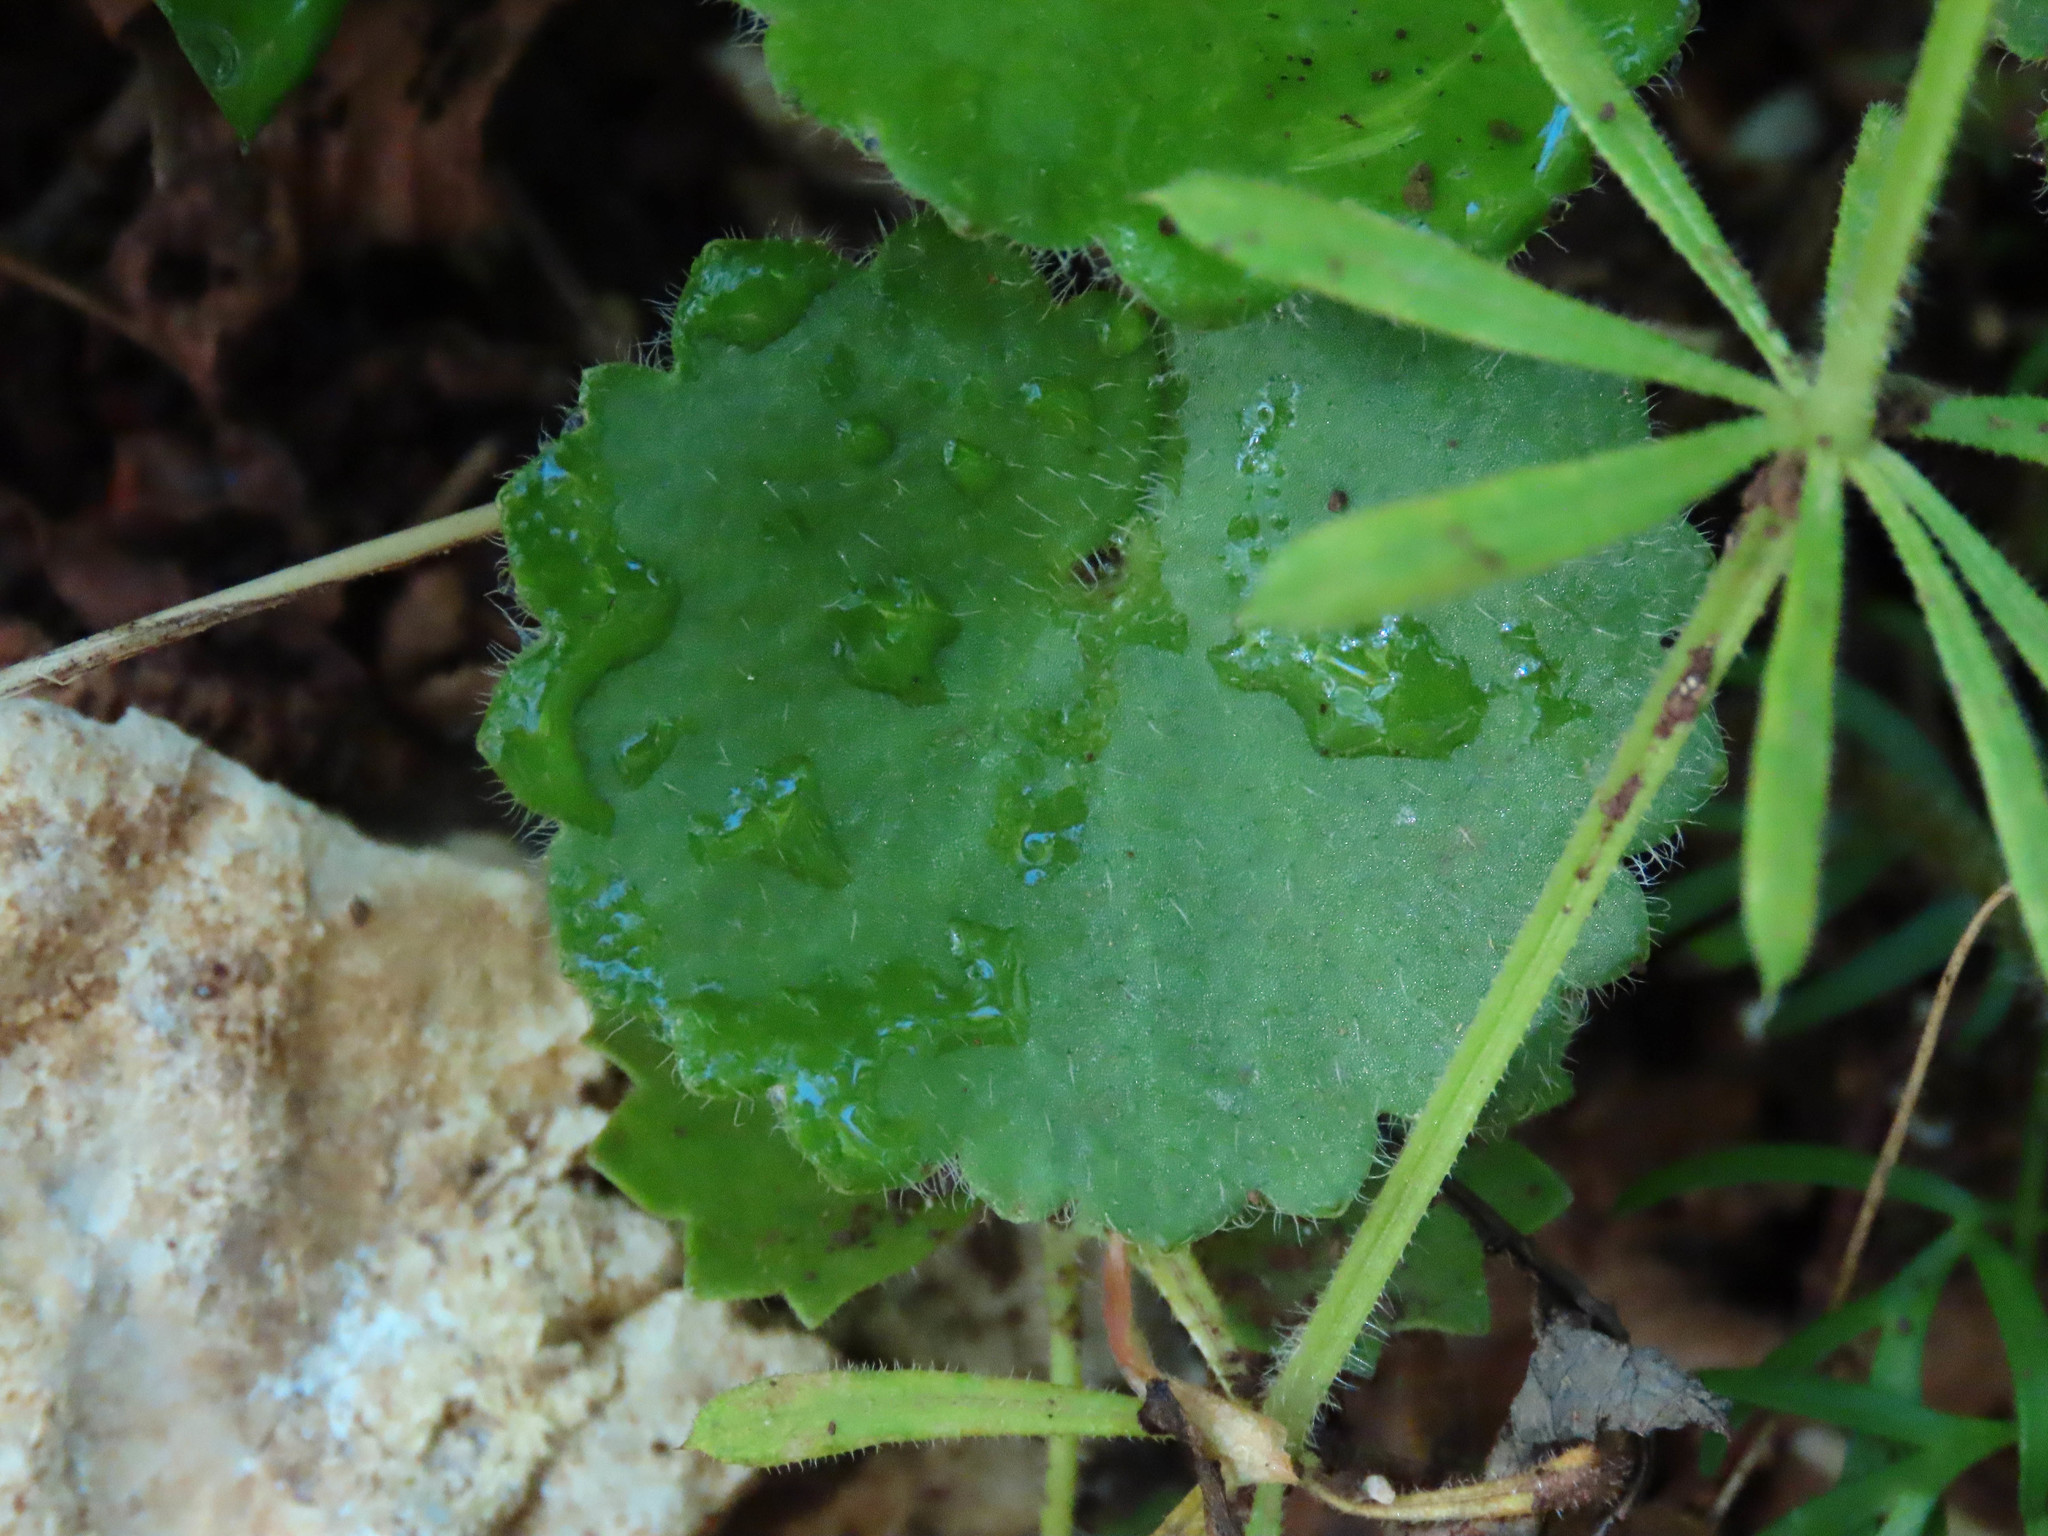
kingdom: Plantae
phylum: Tracheophyta
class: Magnoliopsida
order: Saxifragales
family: Saxifragaceae
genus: Saxifraga
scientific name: Saxifraga granulata
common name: Meadow saxifrage
